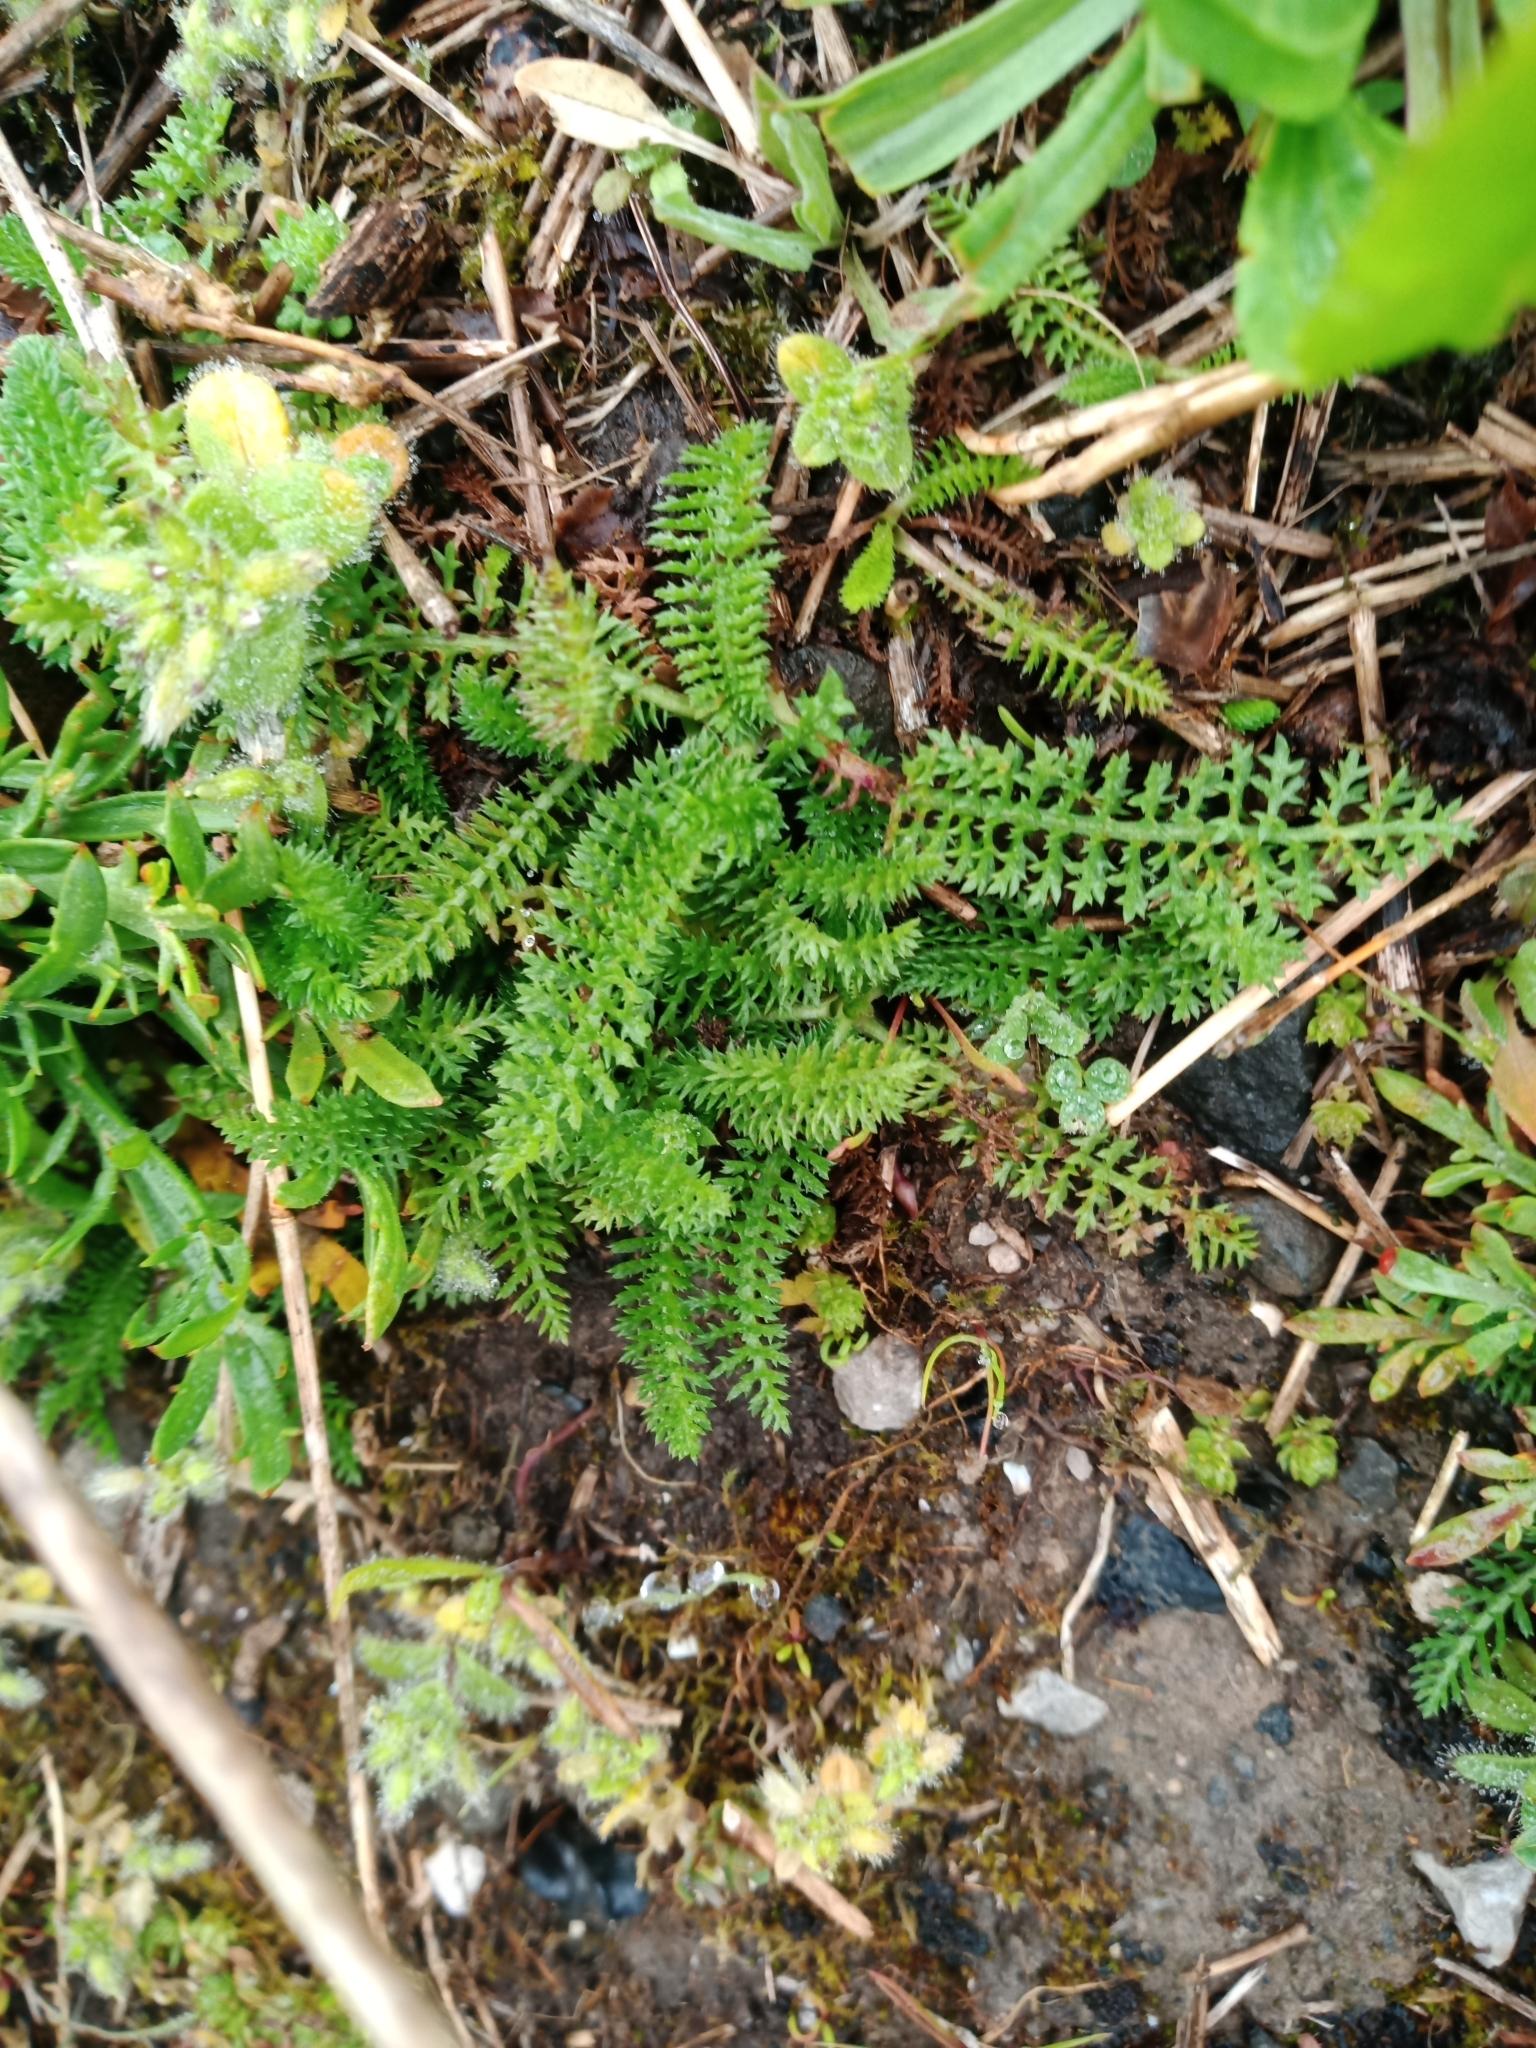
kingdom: Plantae
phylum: Tracheophyta
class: Magnoliopsida
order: Asterales
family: Asteraceae
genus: Achillea
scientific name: Achillea millefolium
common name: Yarrow
